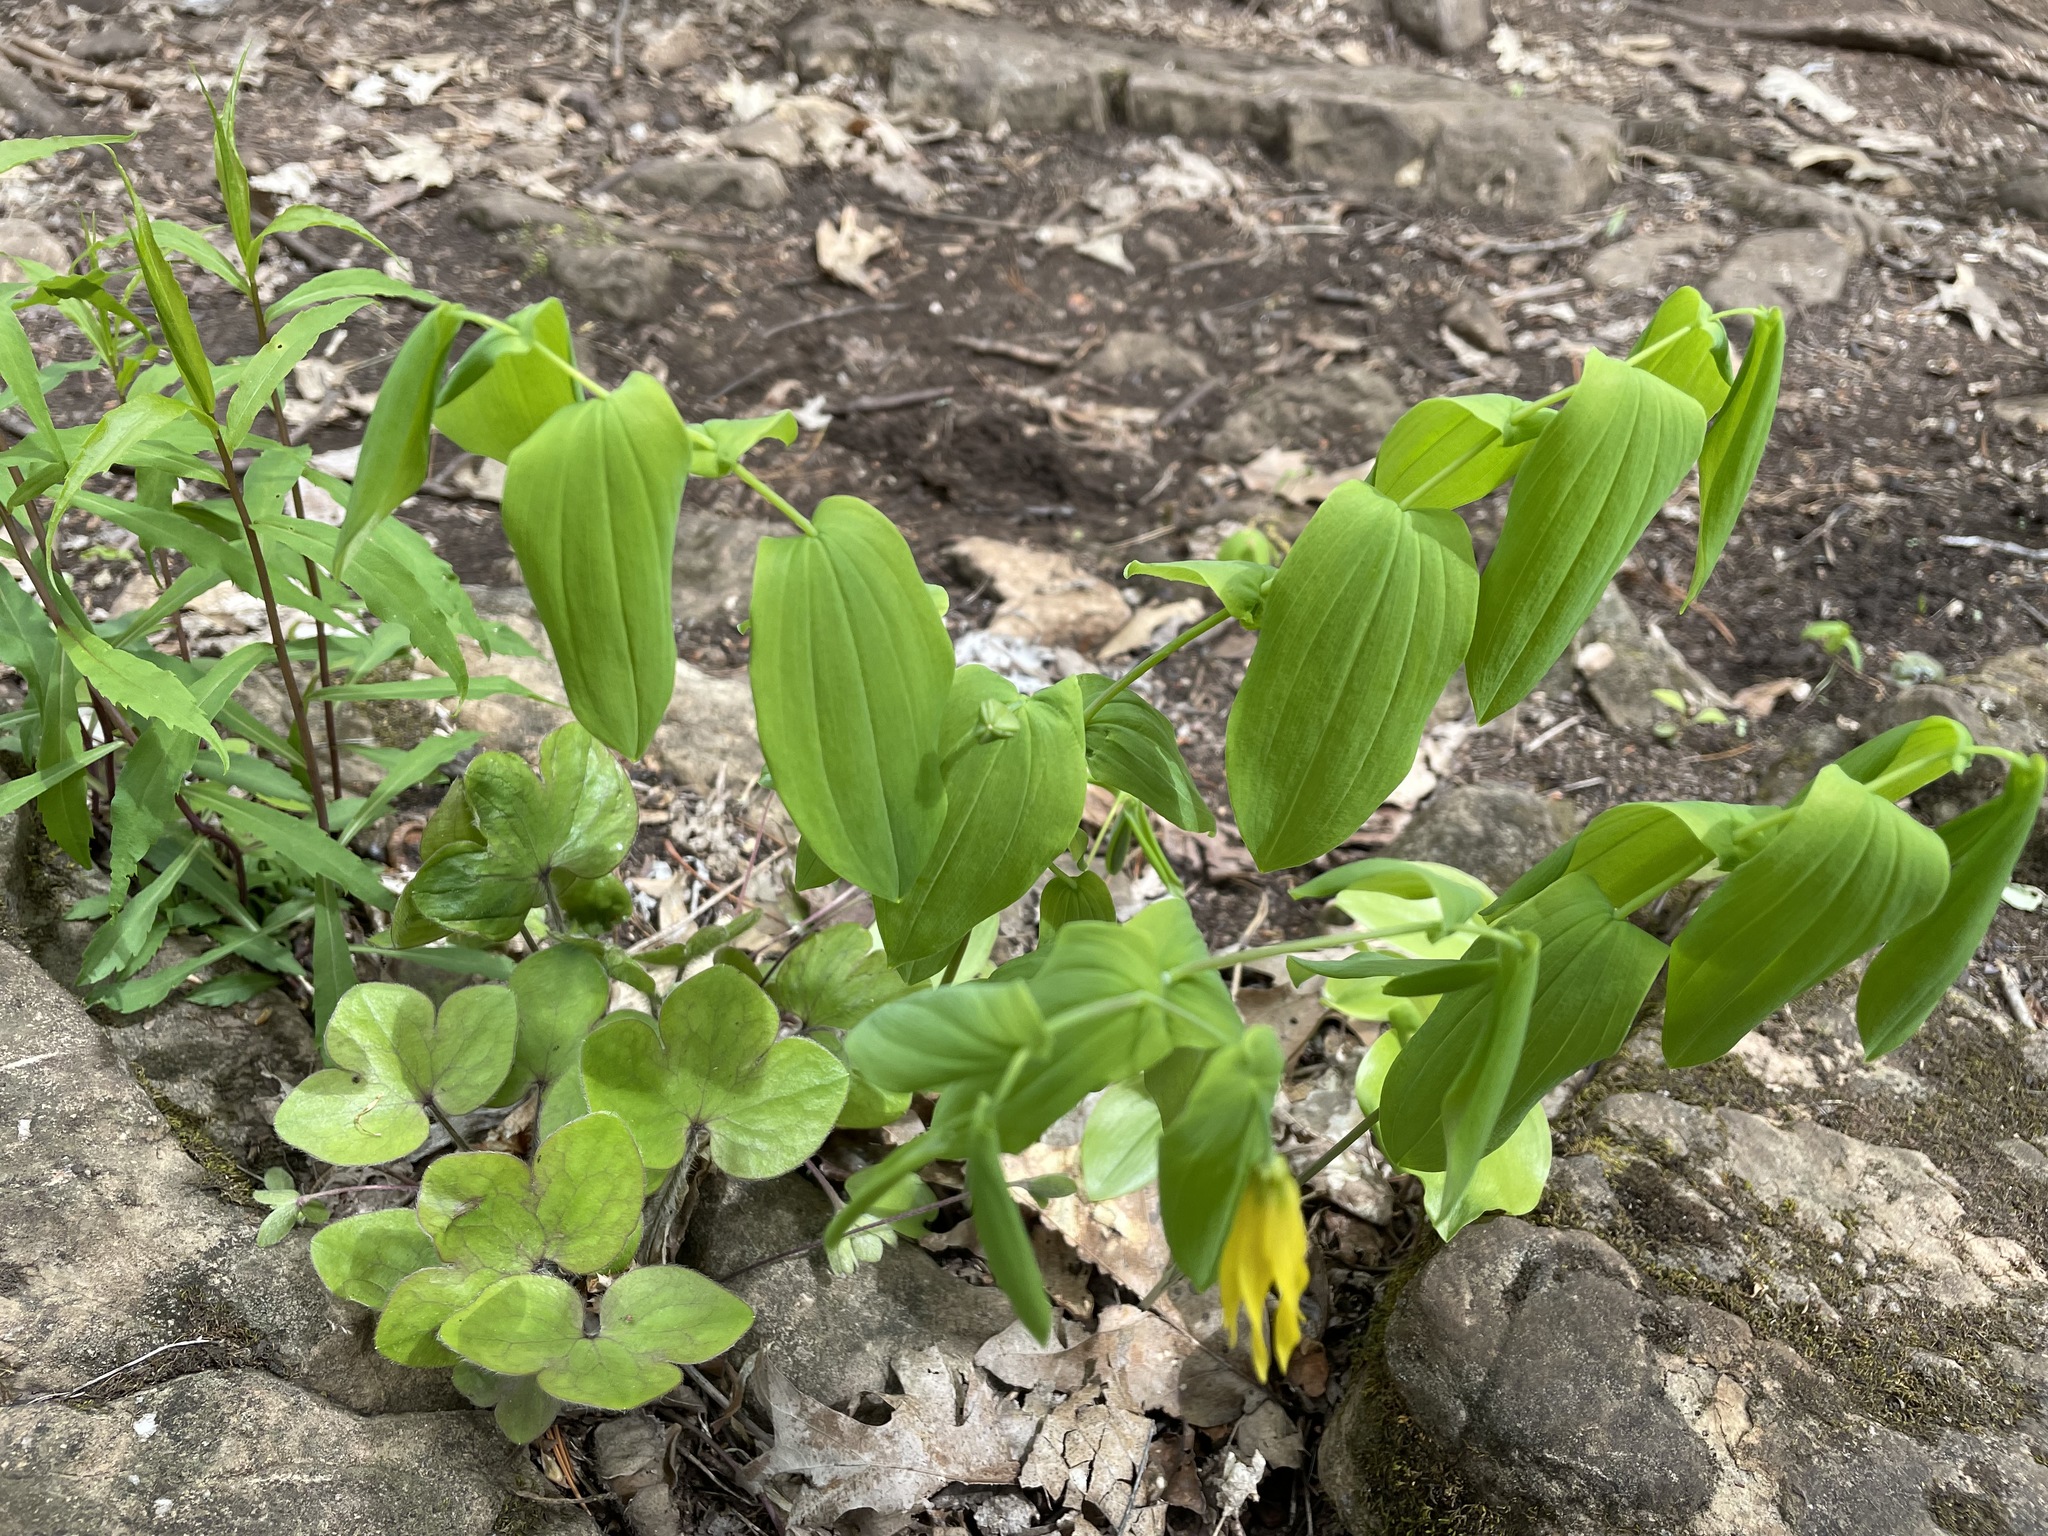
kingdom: Plantae
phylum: Tracheophyta
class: Liliopsida
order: Liliales
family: Colchicaceae
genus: Uvularia
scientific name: Uvularia grandiflora
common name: Bellwort
